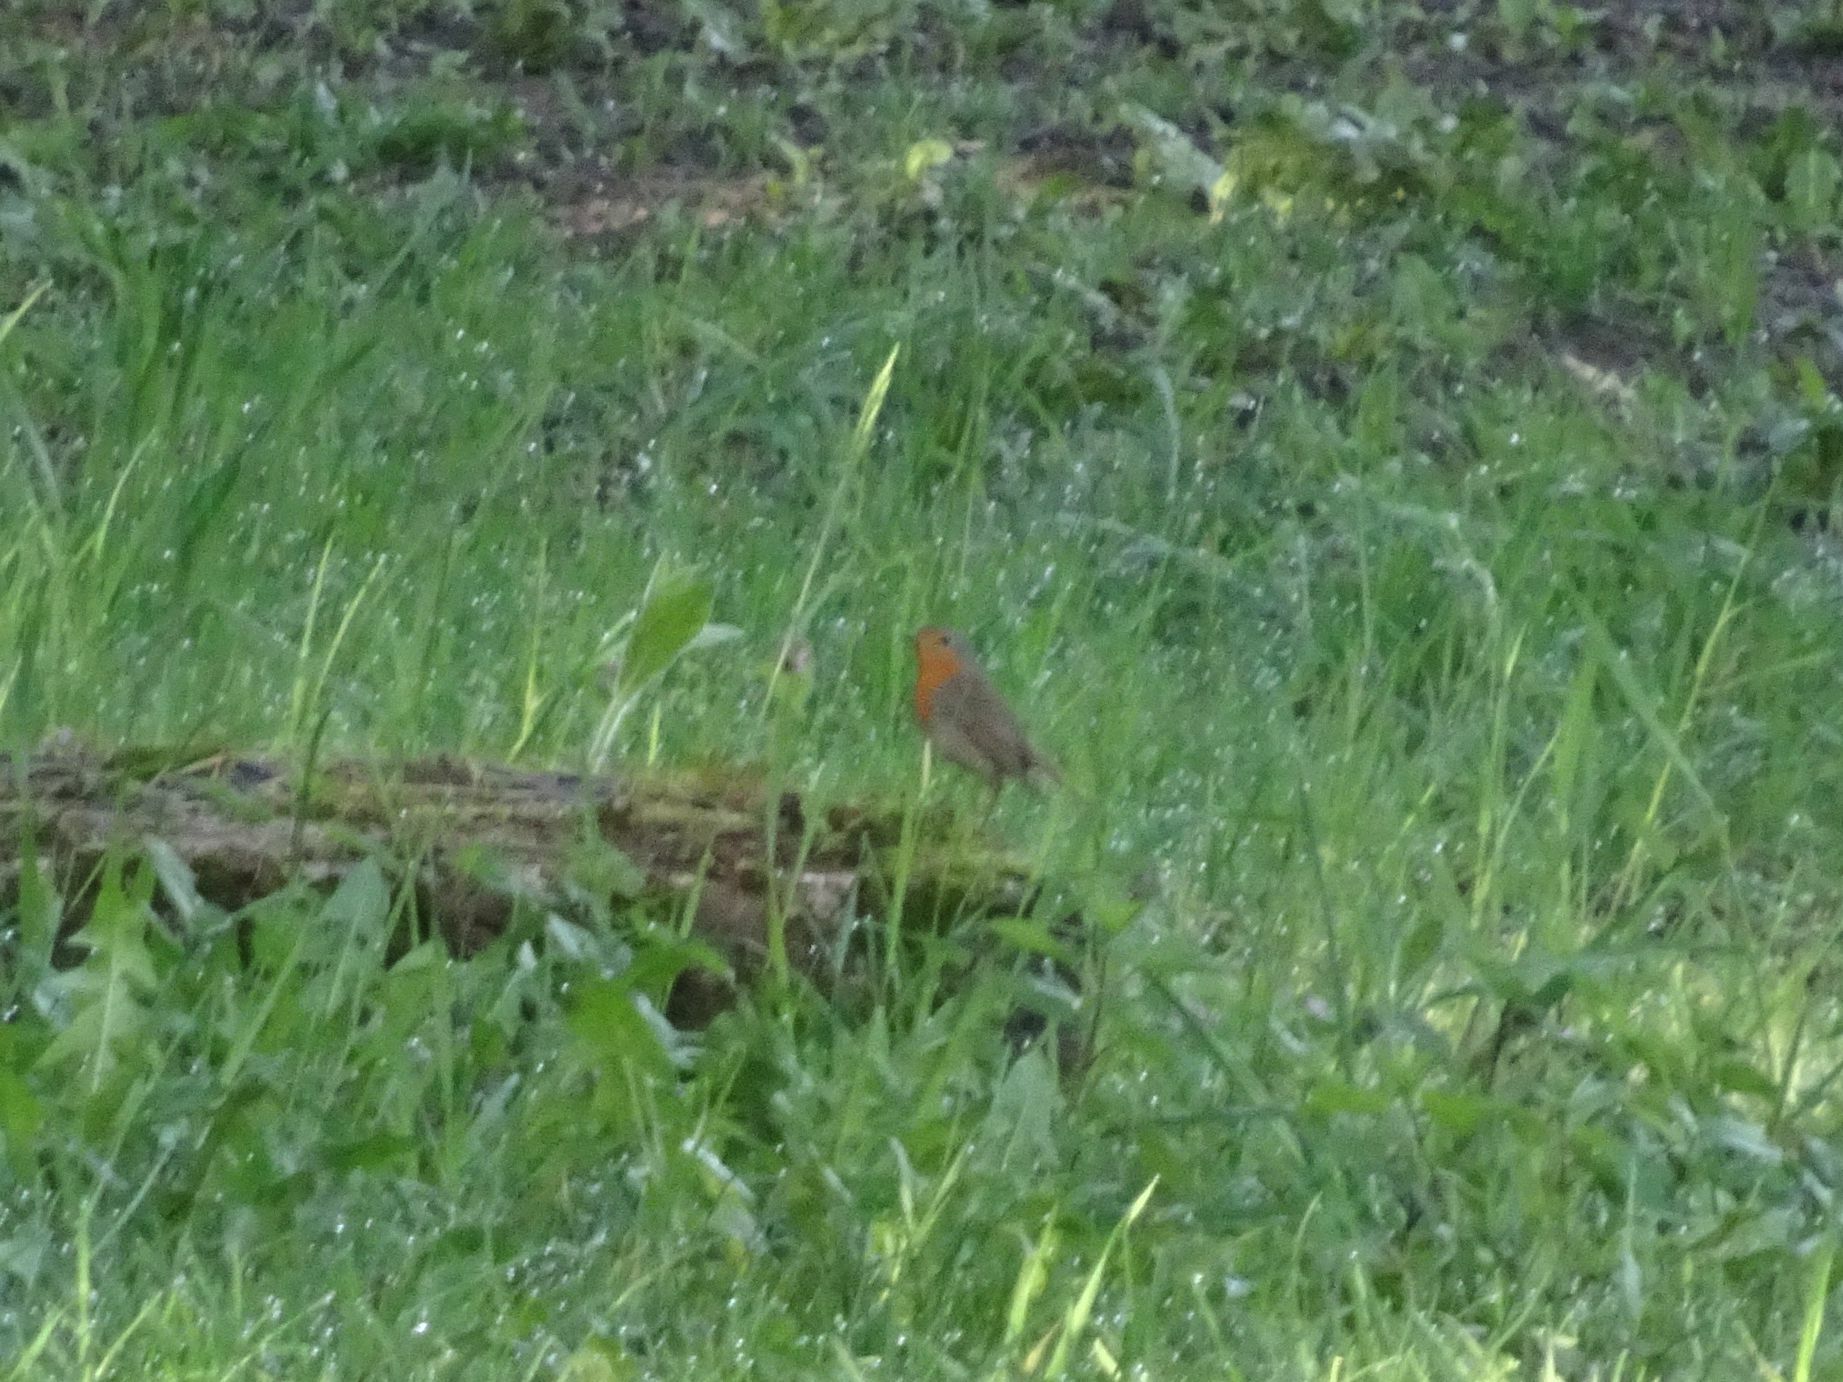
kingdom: Animalia
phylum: Chordata
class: Aves
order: Passeriformes
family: Muscicapidae
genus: Erithacus
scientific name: Erithacus rubecula
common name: European robin
